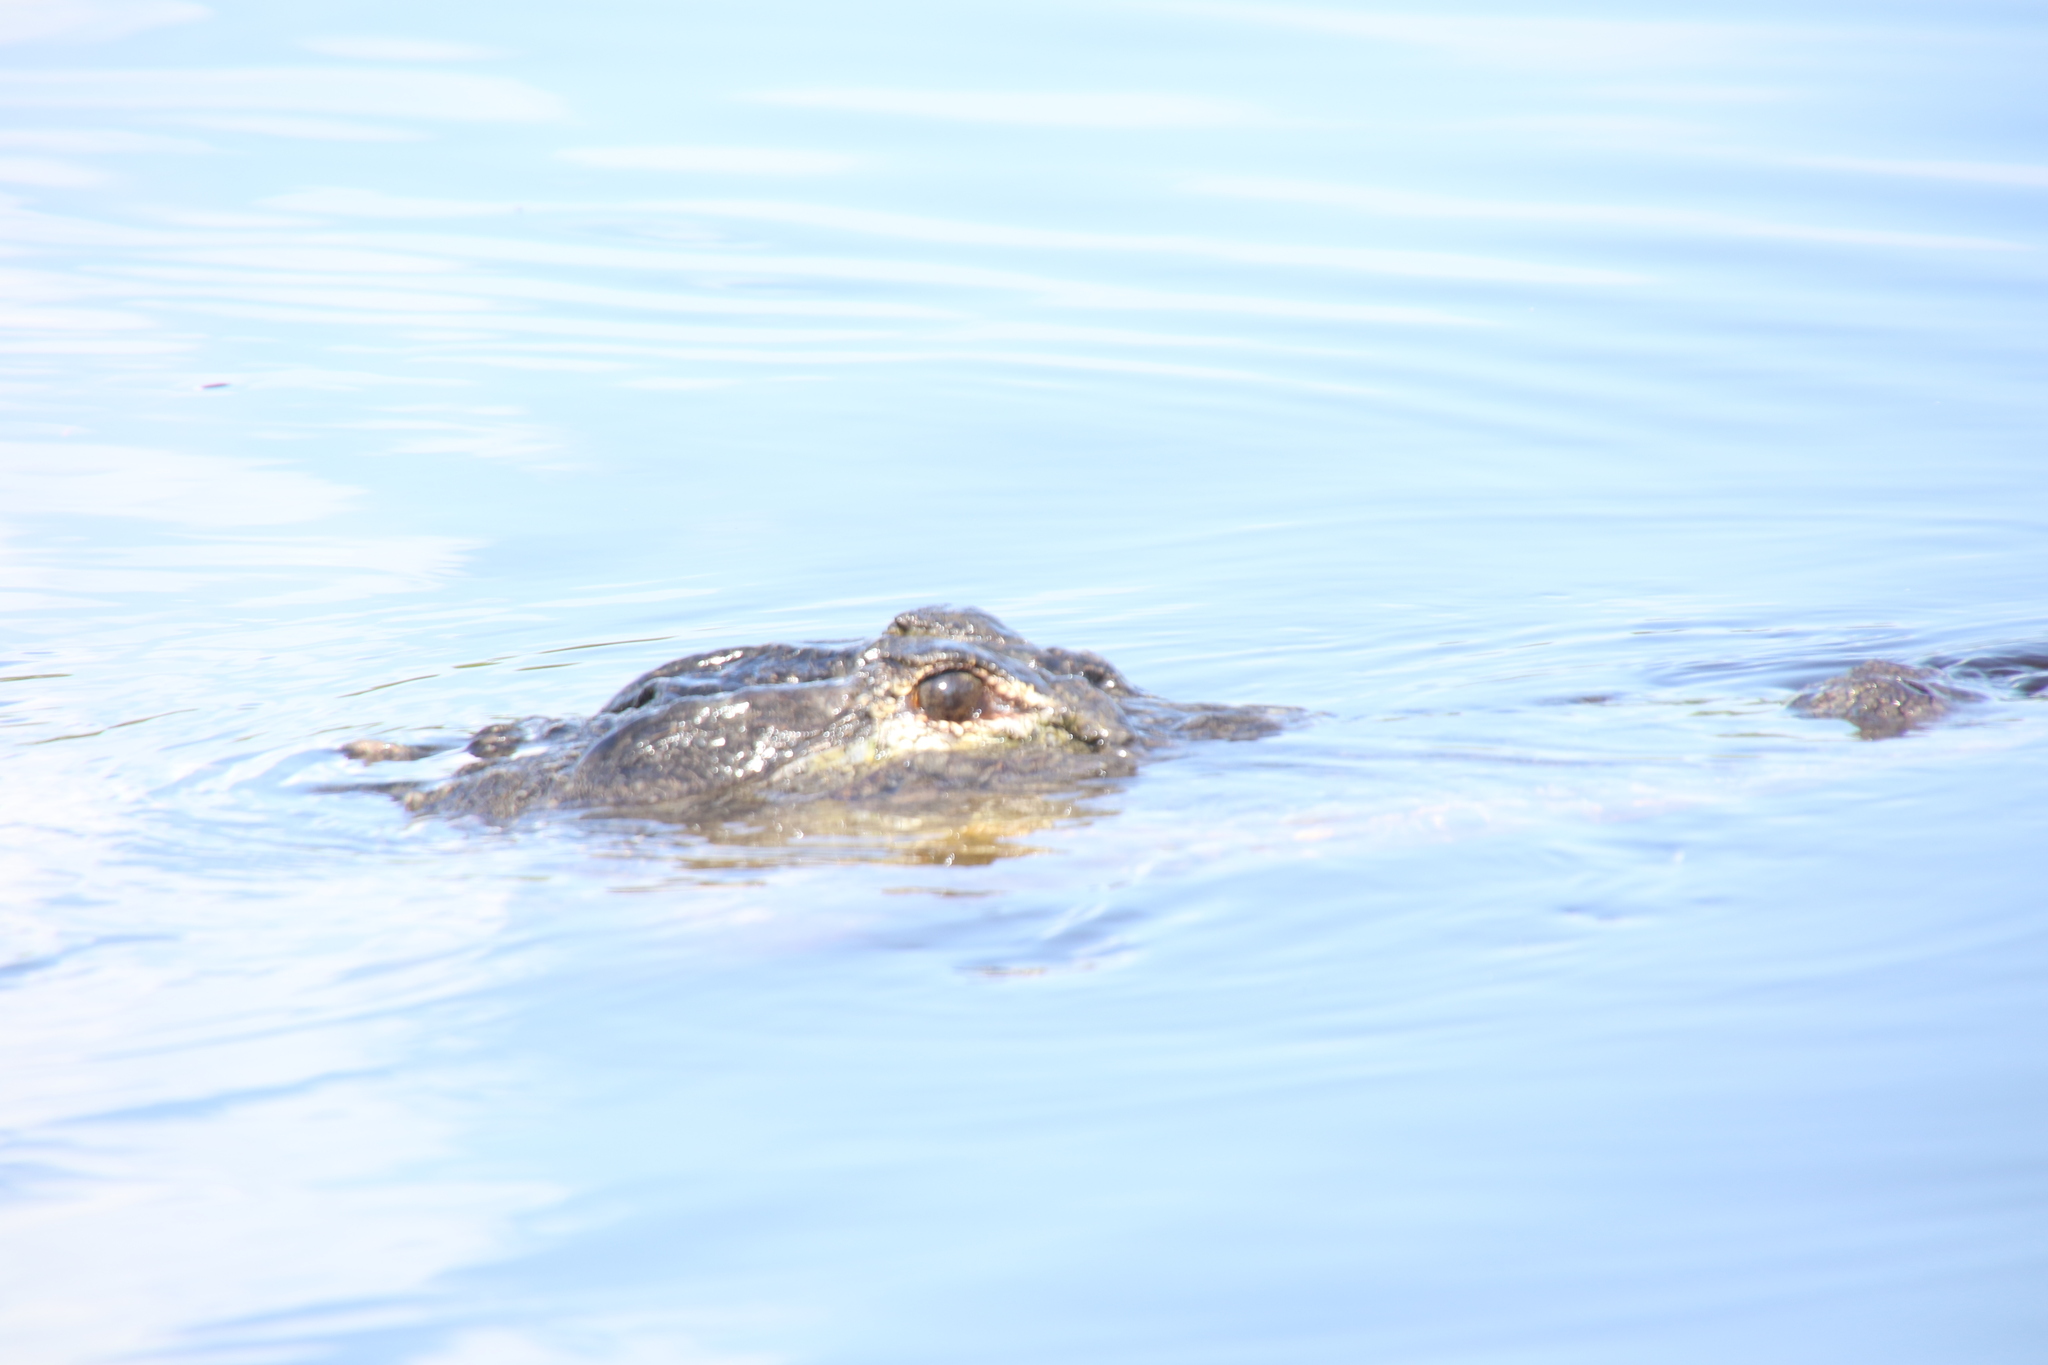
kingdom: Animalia
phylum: Chordata
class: Crocodylia
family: Alligatoridae
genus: Alligator
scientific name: Alligator mississippiensis
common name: American alligator
